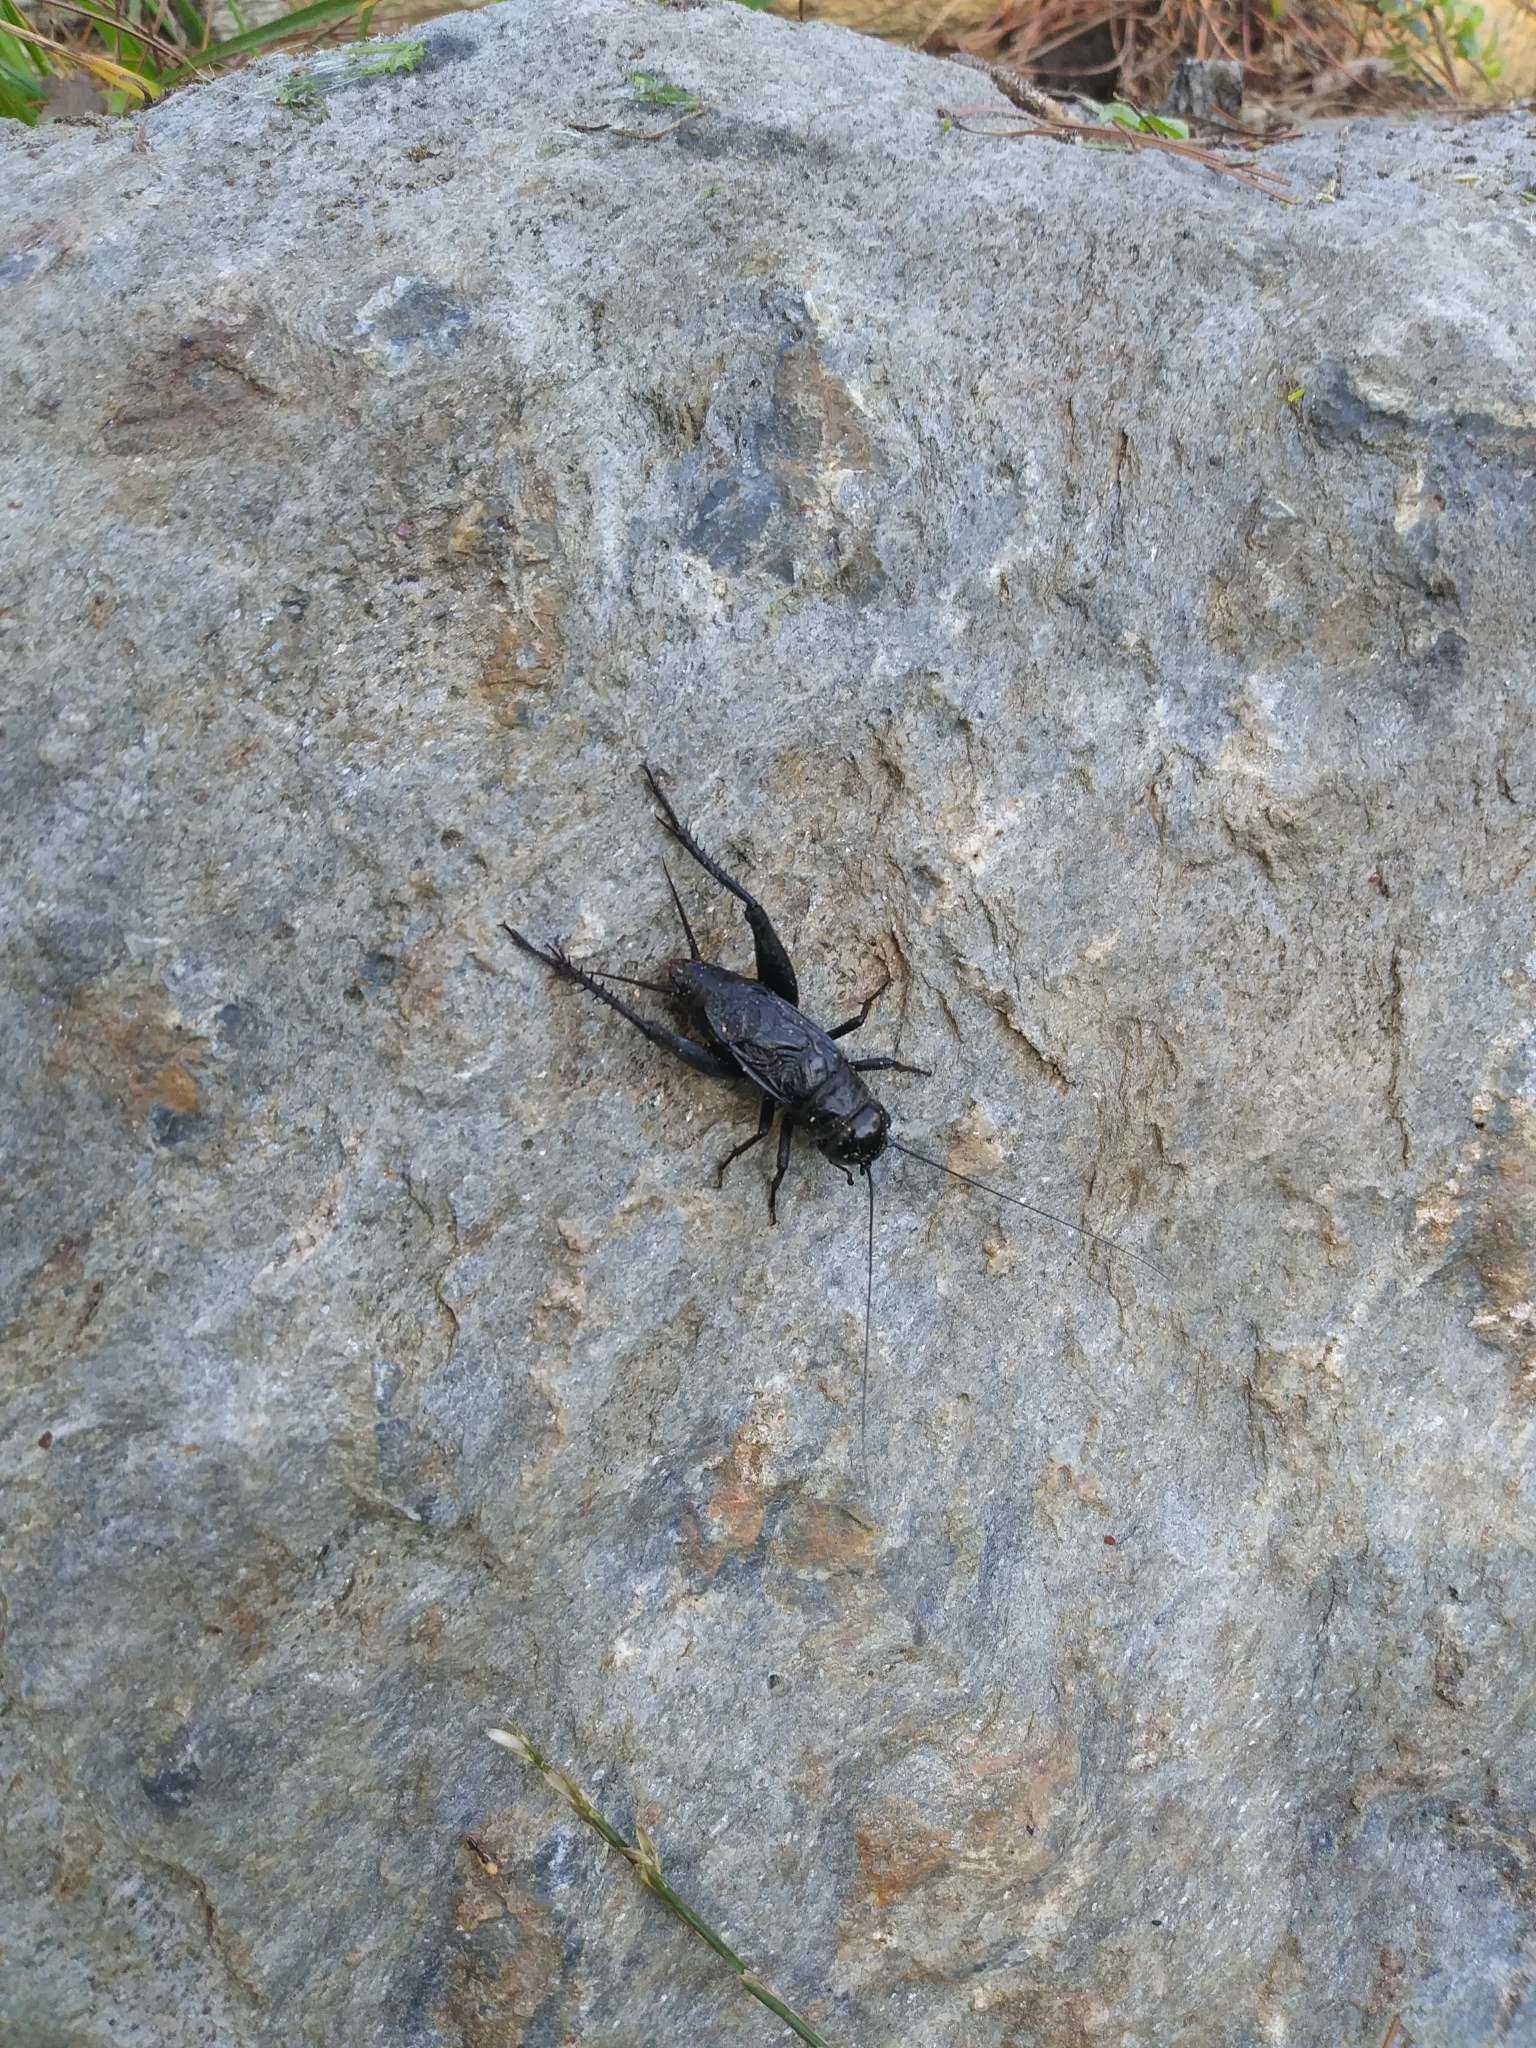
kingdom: Animalia
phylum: Arthropoda
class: Insecta
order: Orthoptera
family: Gryllidae
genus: Gryllus
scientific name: Gryllus pennsylvanicus
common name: Fall field cricket
